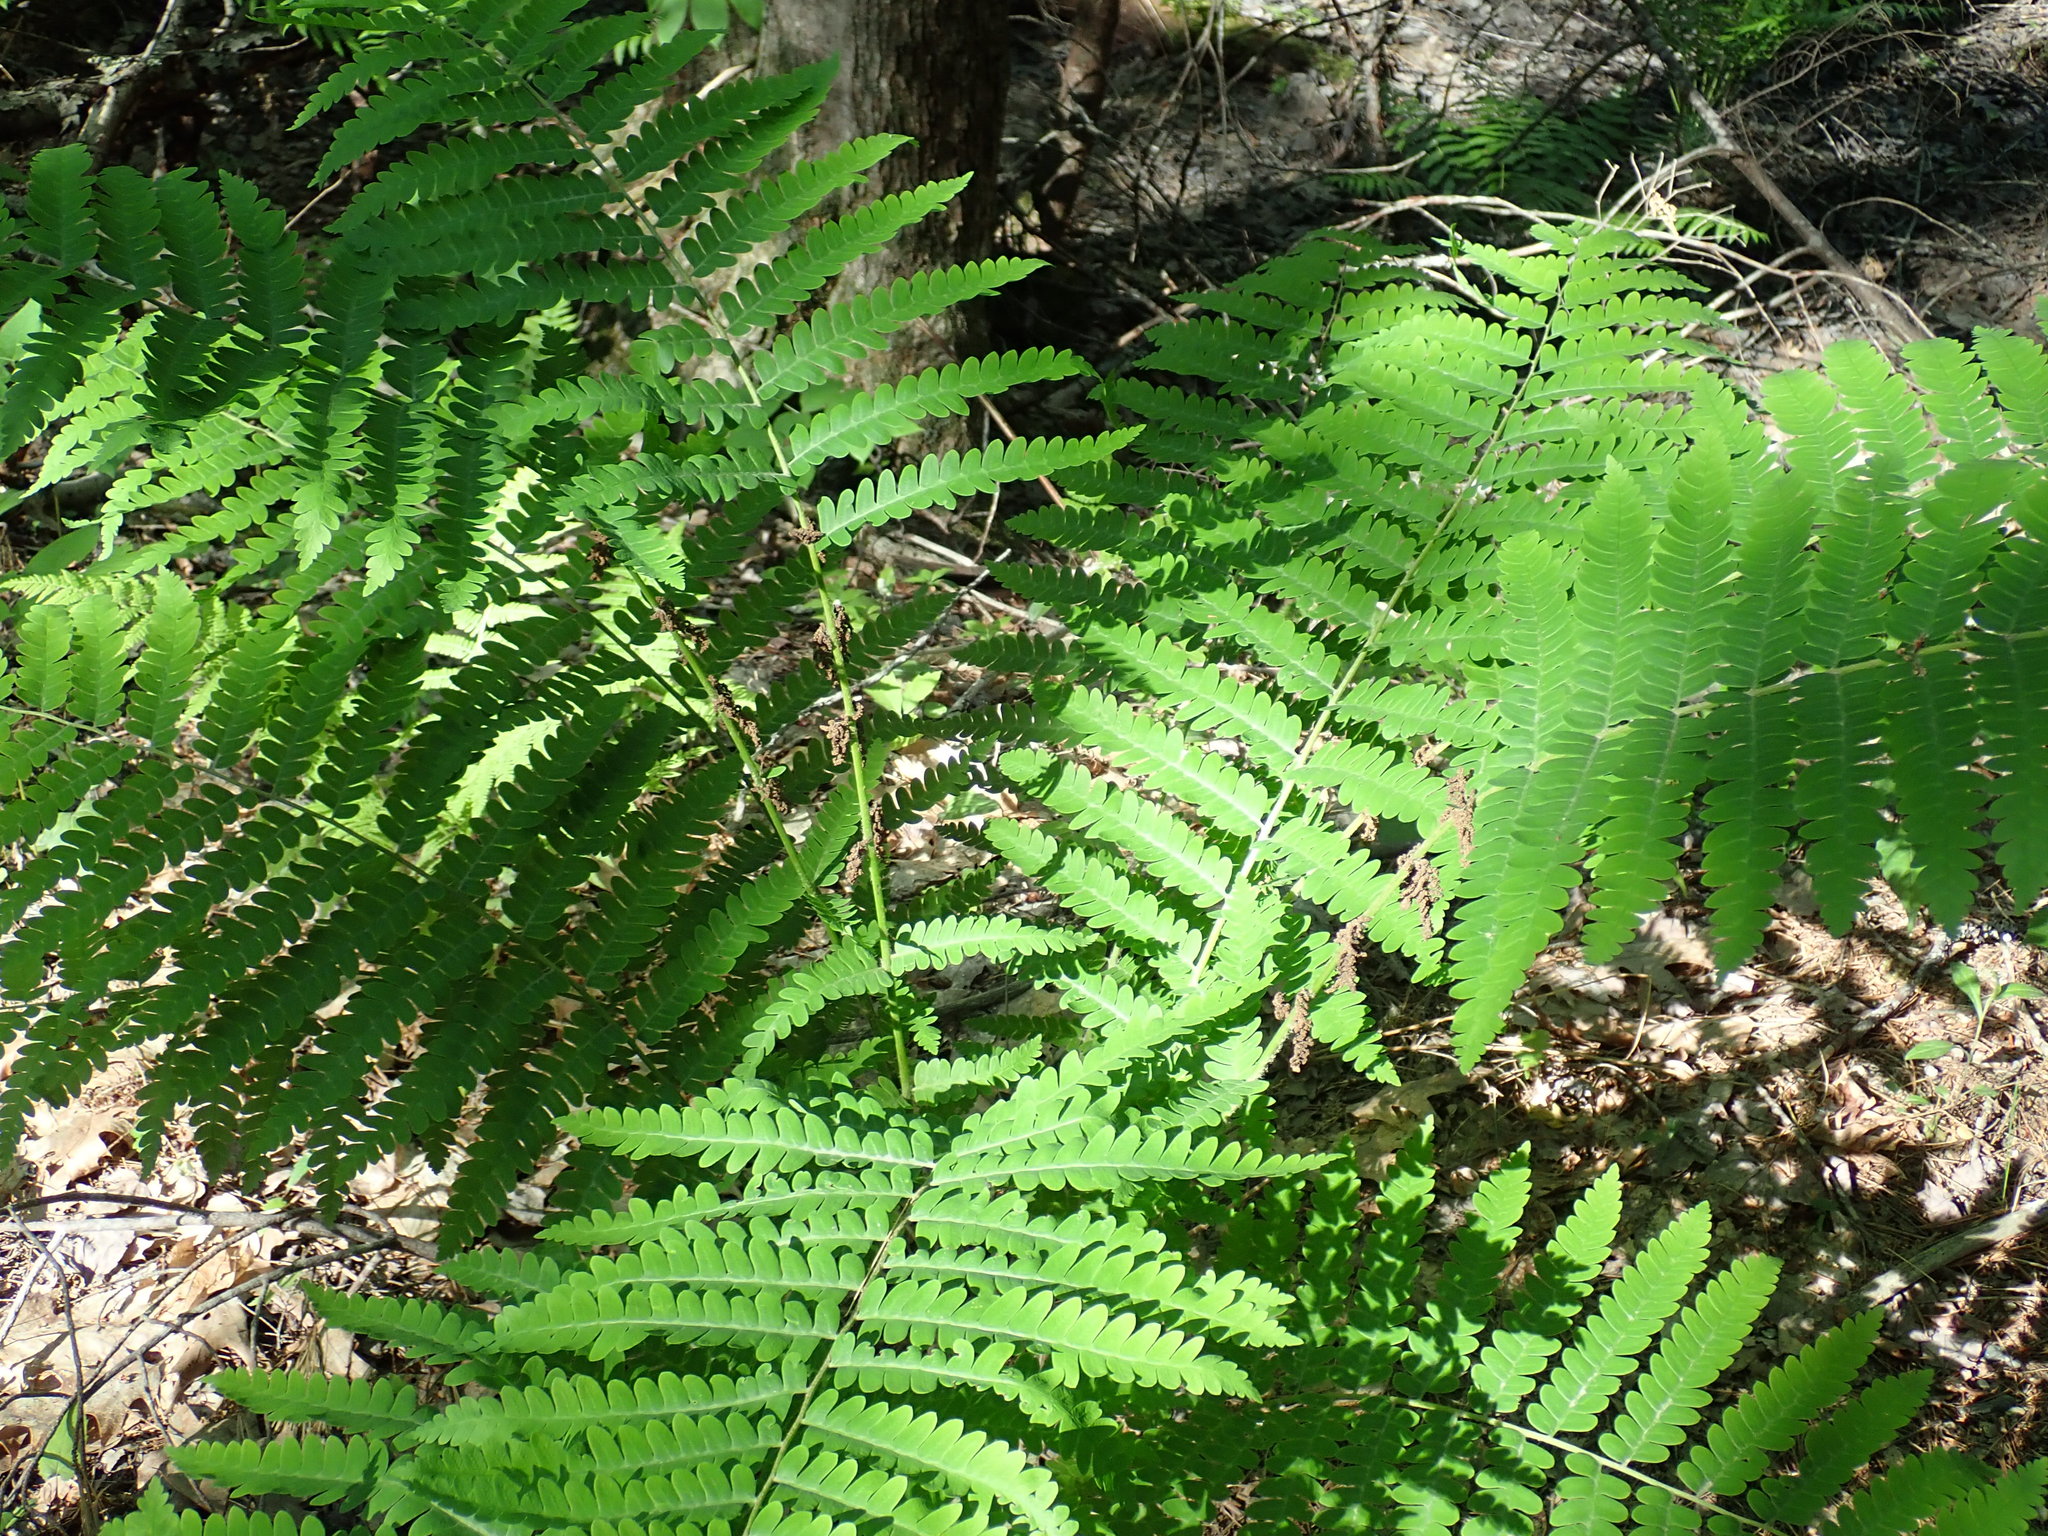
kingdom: Plantae
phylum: Tracheophyta
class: Polypodiopsida
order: Osmundales
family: Osmundaceae
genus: Claytosmunda
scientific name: Claytosmunda claytoniana
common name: Clayton's fern
